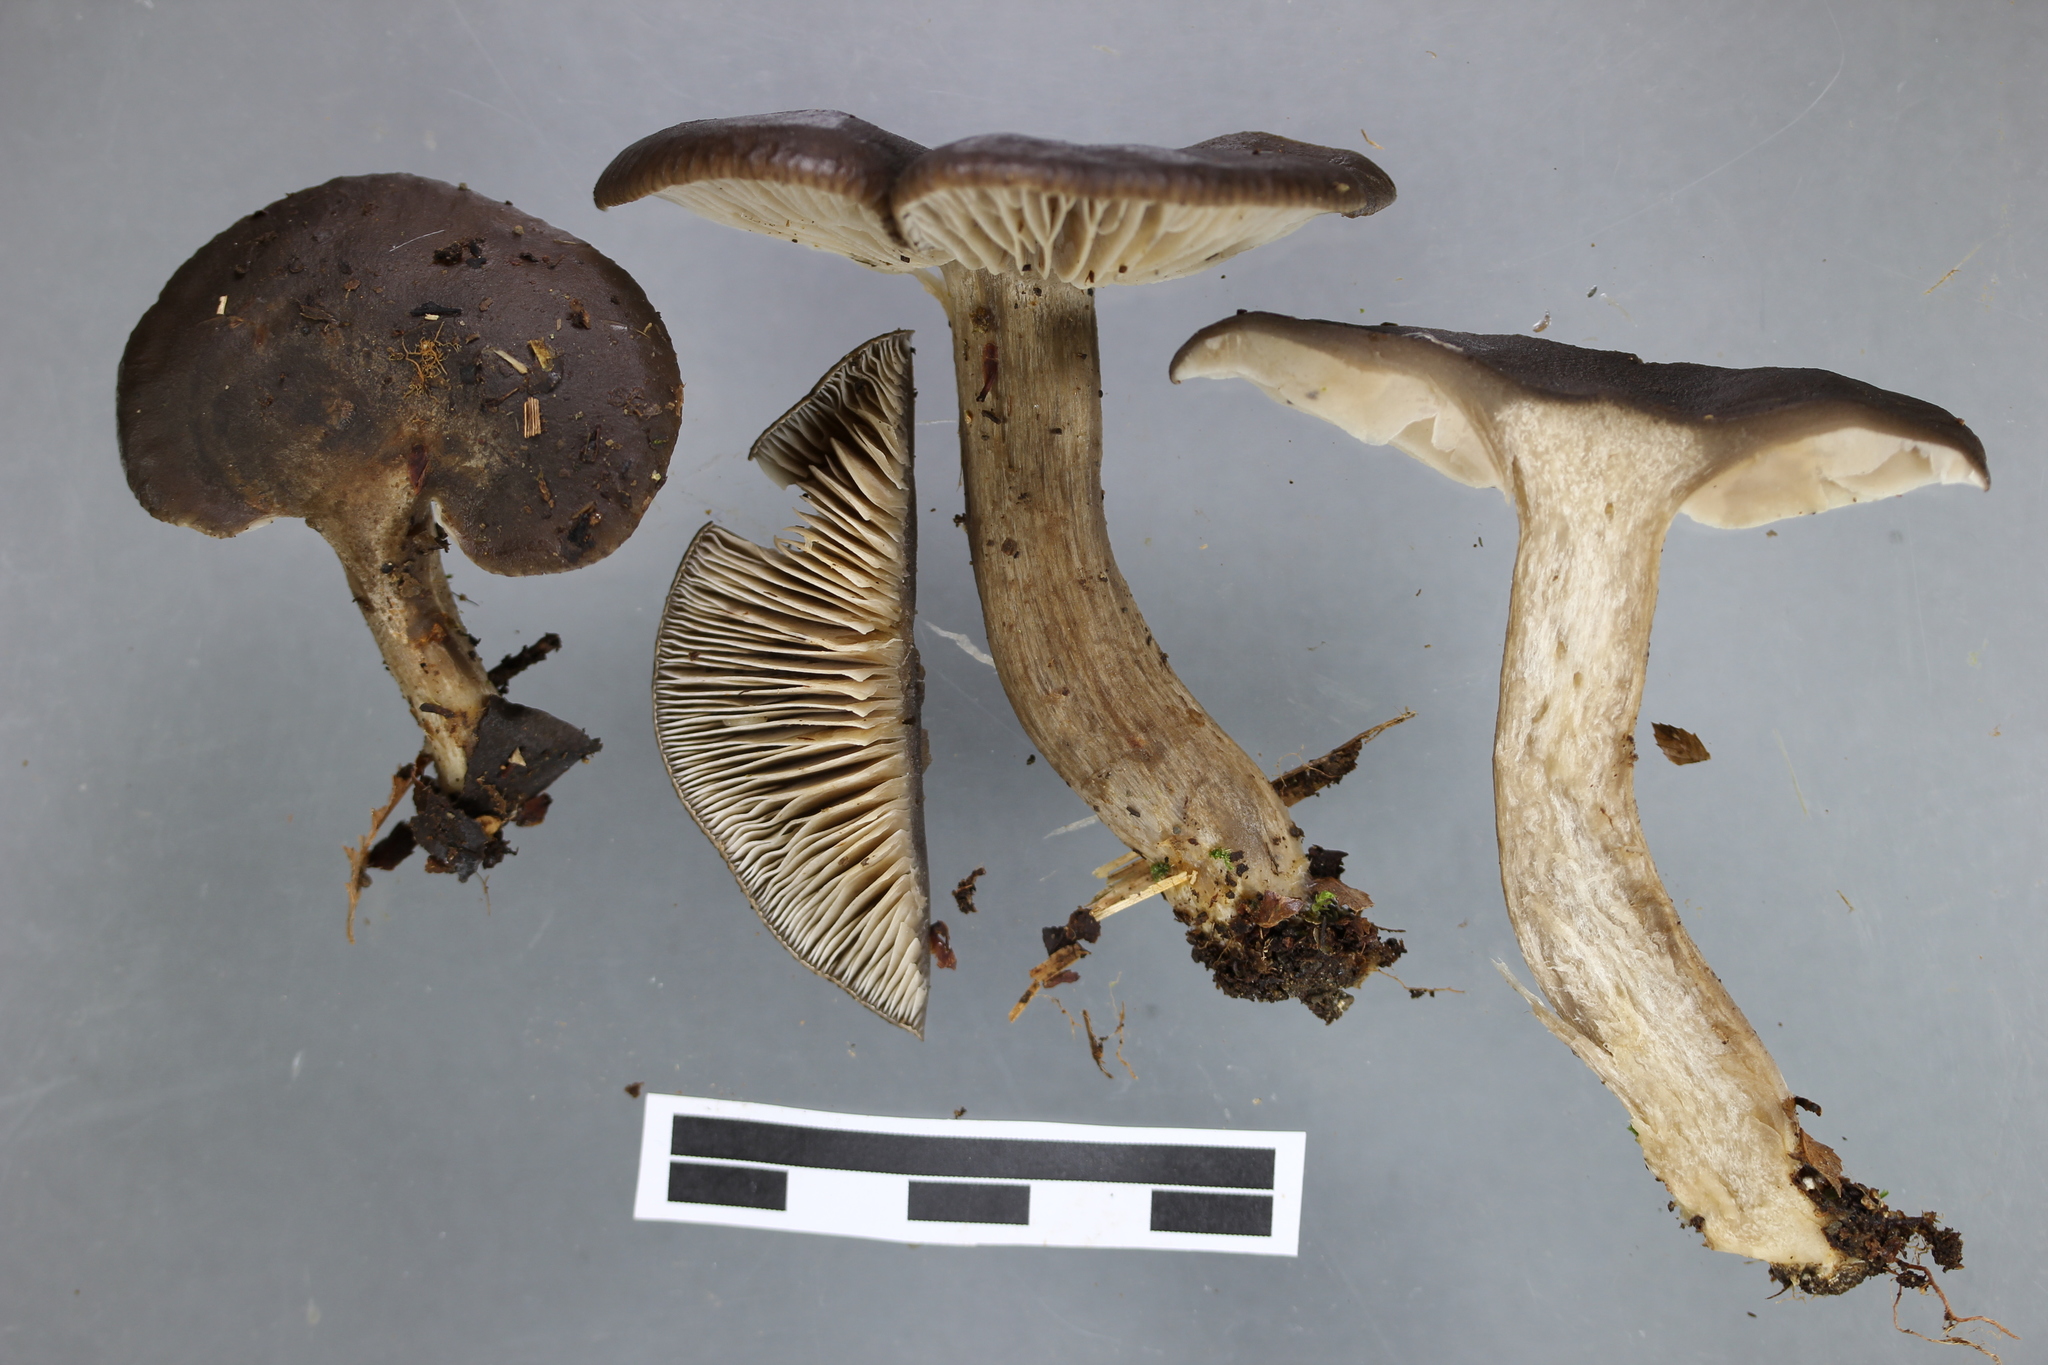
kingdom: Fungi
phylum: Basidiomycota
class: Agaricomycetes
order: Agaricales
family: Lyophyllaceae
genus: Lyophyllum
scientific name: Lyophyllum moncalvoanum
